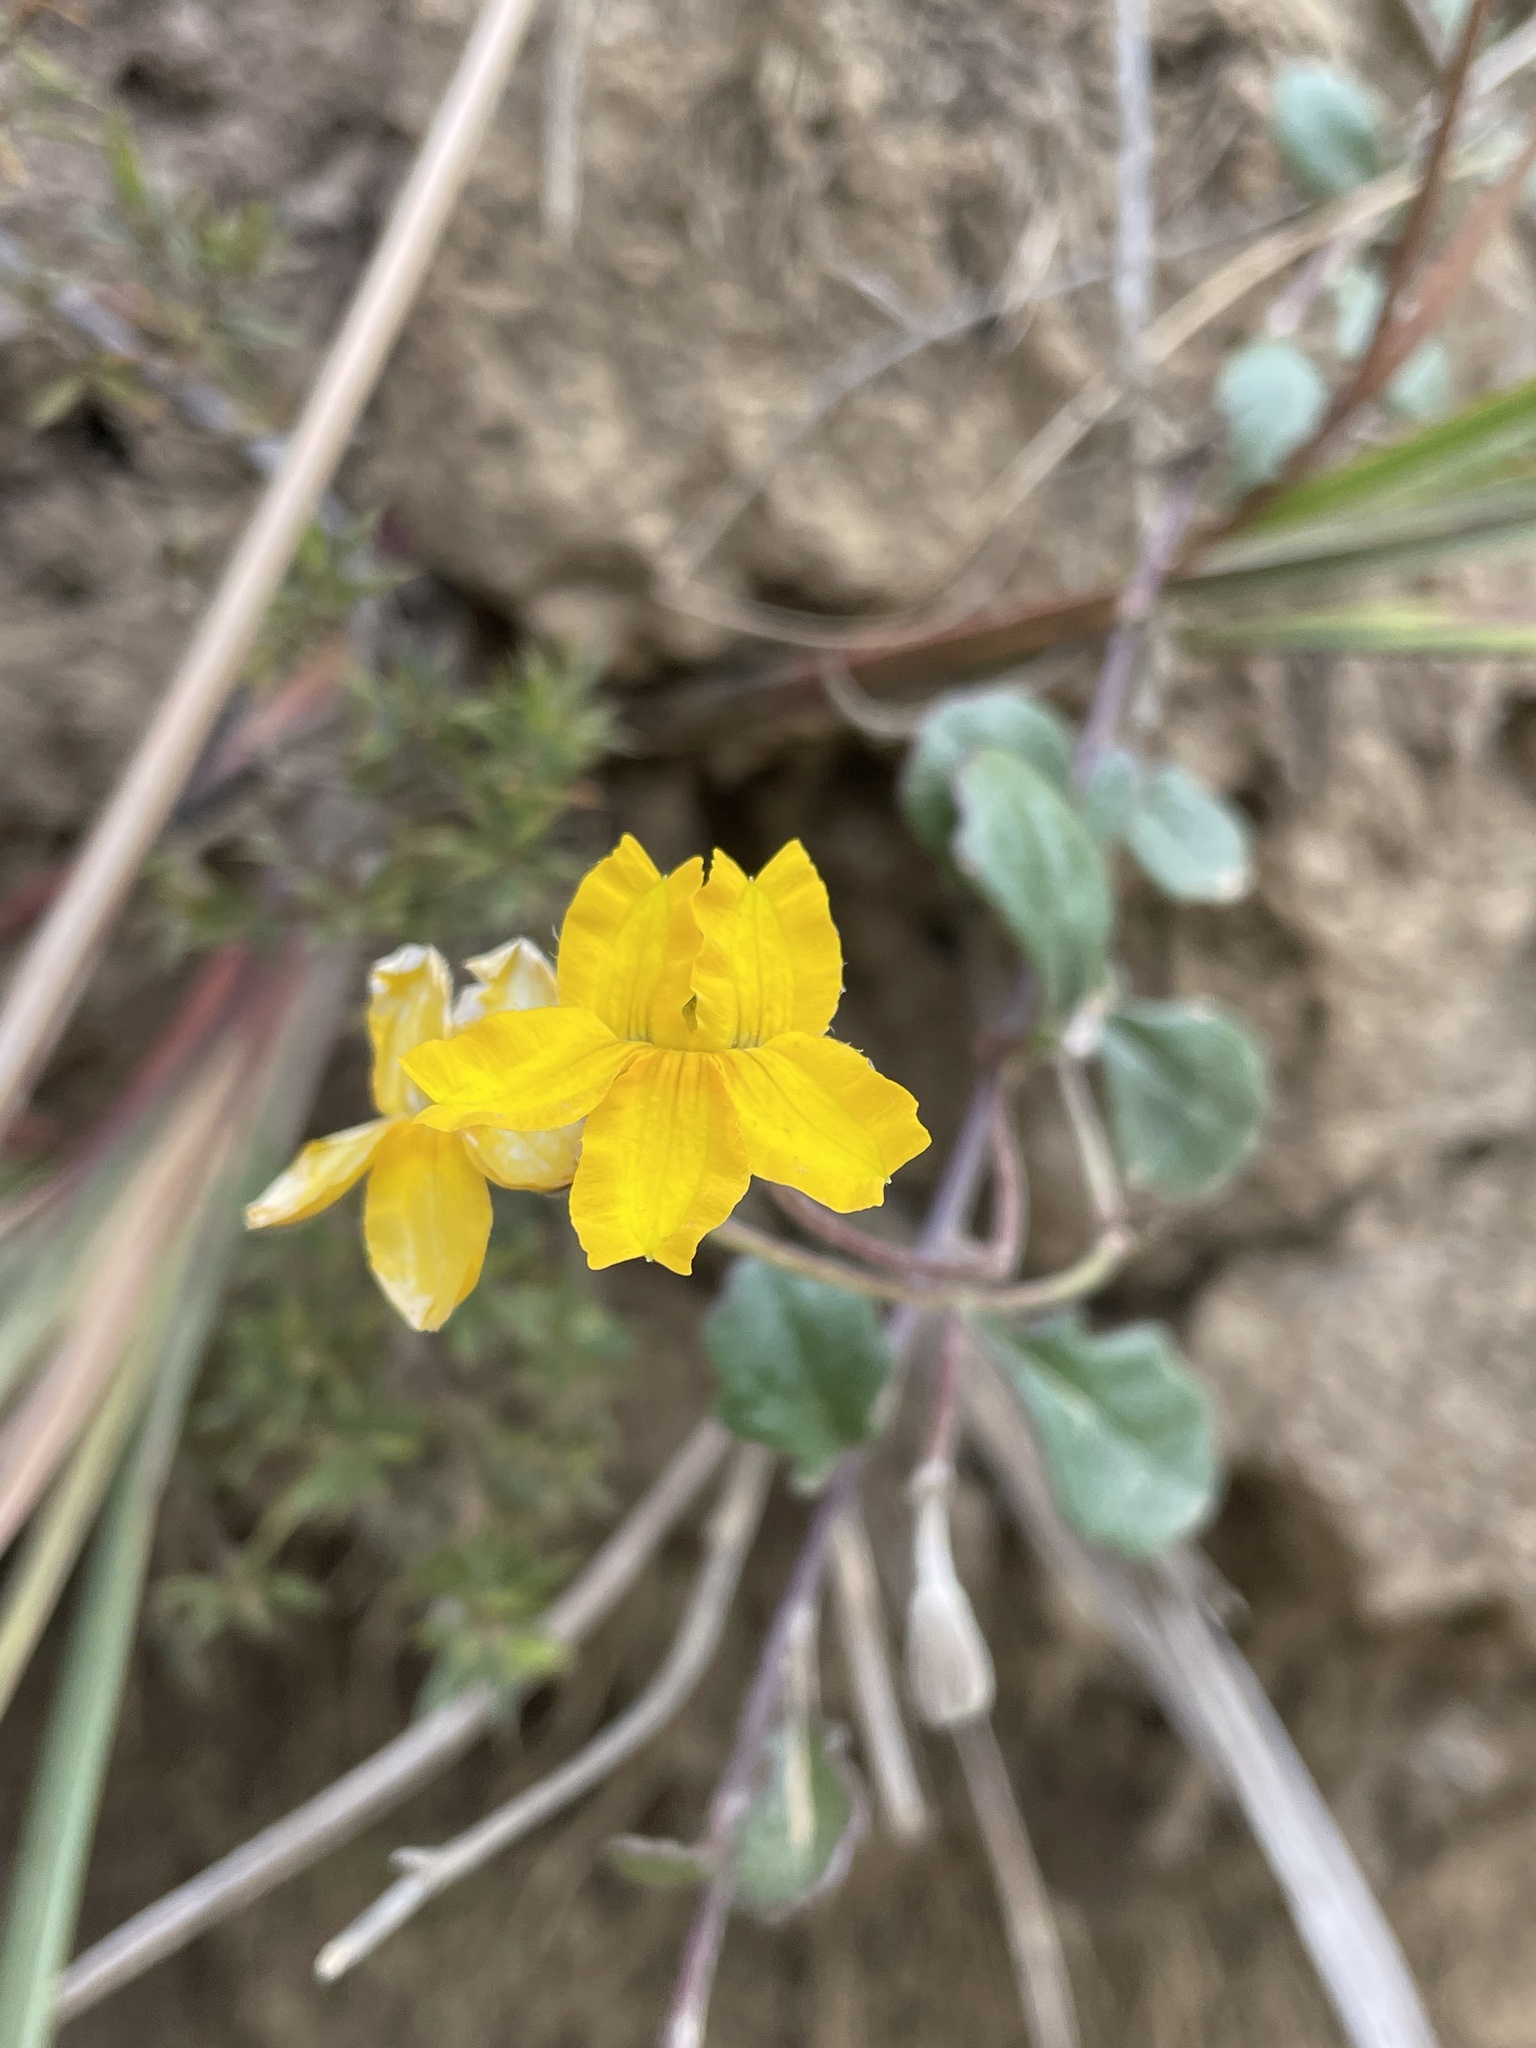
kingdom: Plantae
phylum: Tracheophyta
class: Magnoliopsida
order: Asterales
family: Goodeniaceae
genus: Goodenia
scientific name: Goodenia lanata
